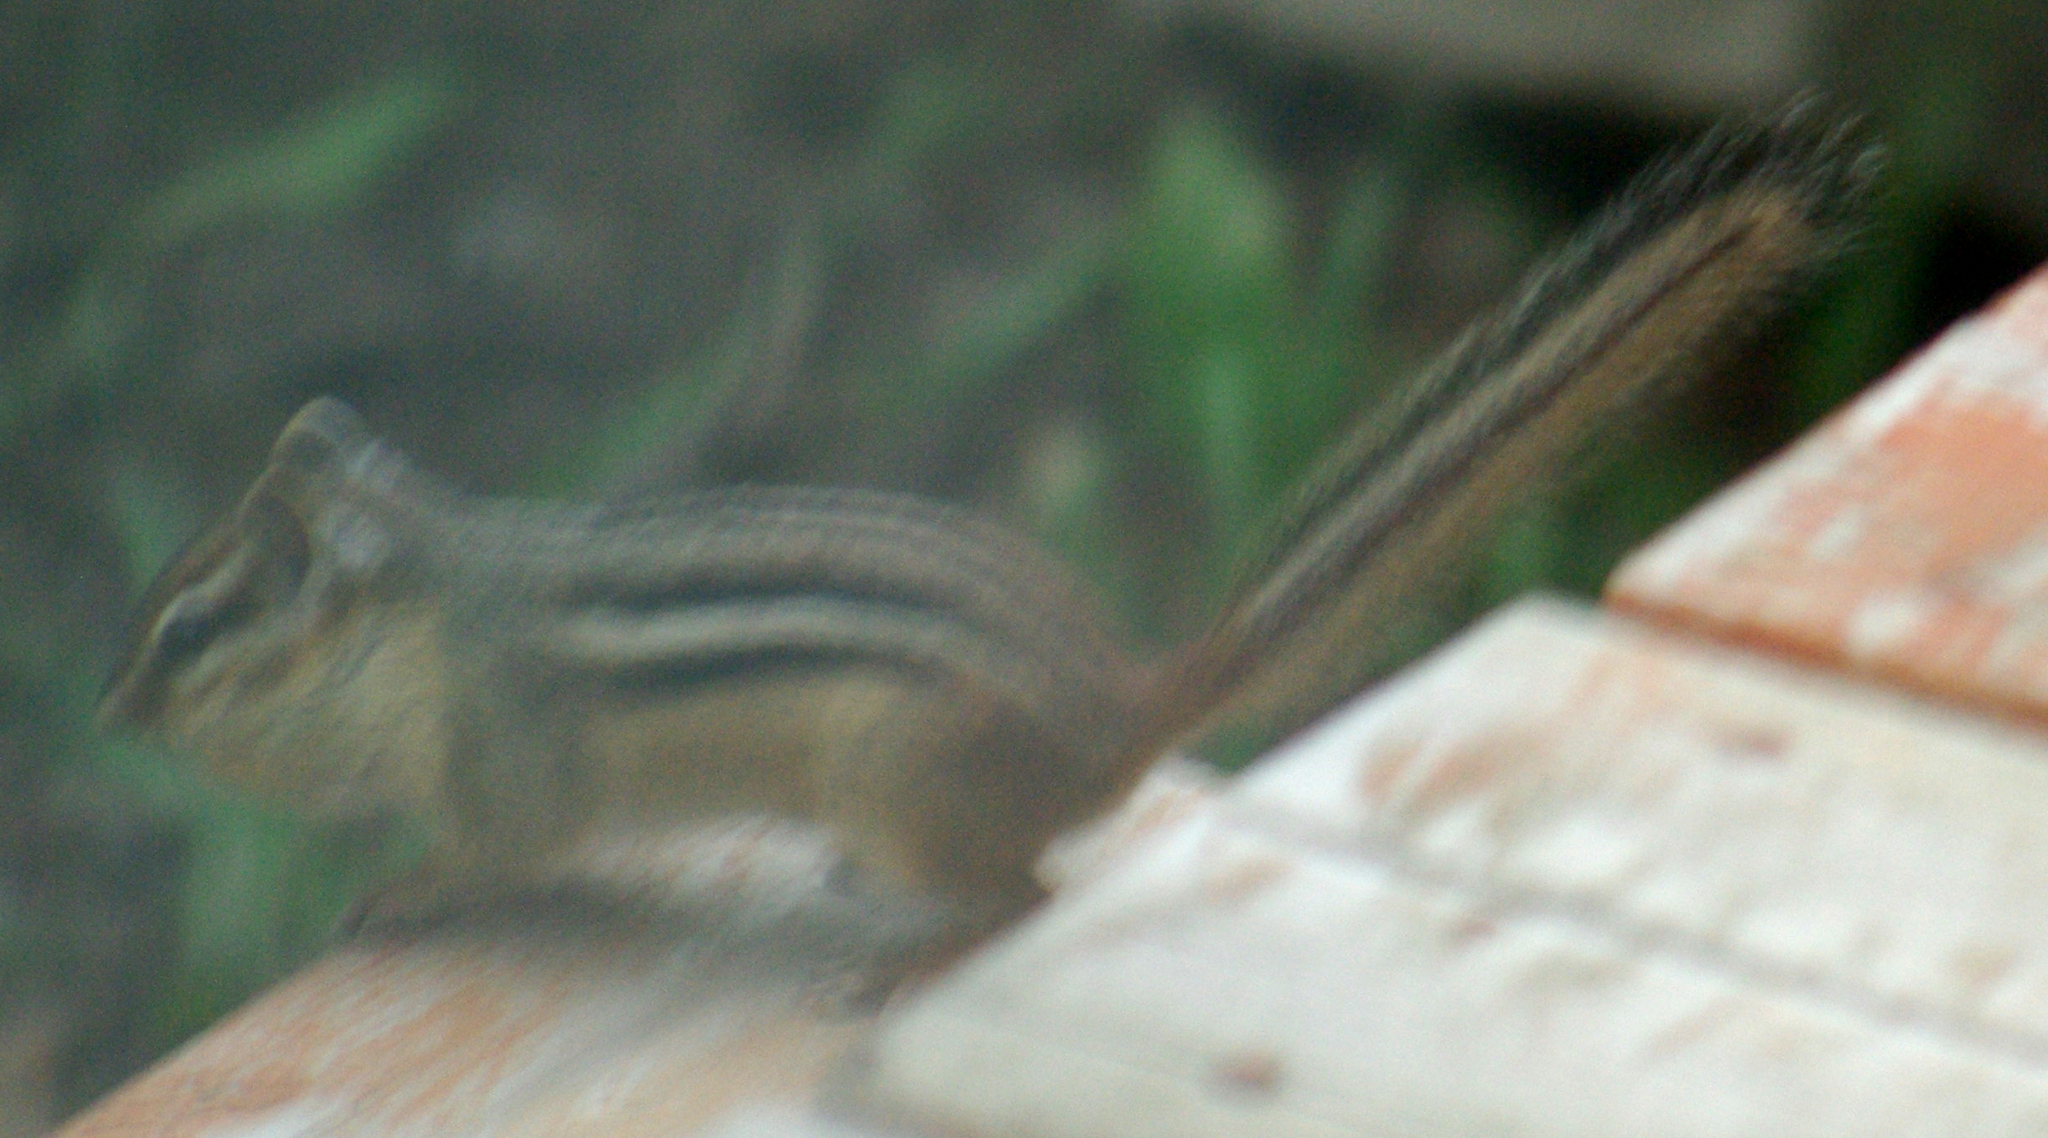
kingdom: Animalia
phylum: Chordata
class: Mammalia
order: Rodentia
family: Sciuridae
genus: Tamias
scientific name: Tamias striatus
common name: Eastern chipmunk
